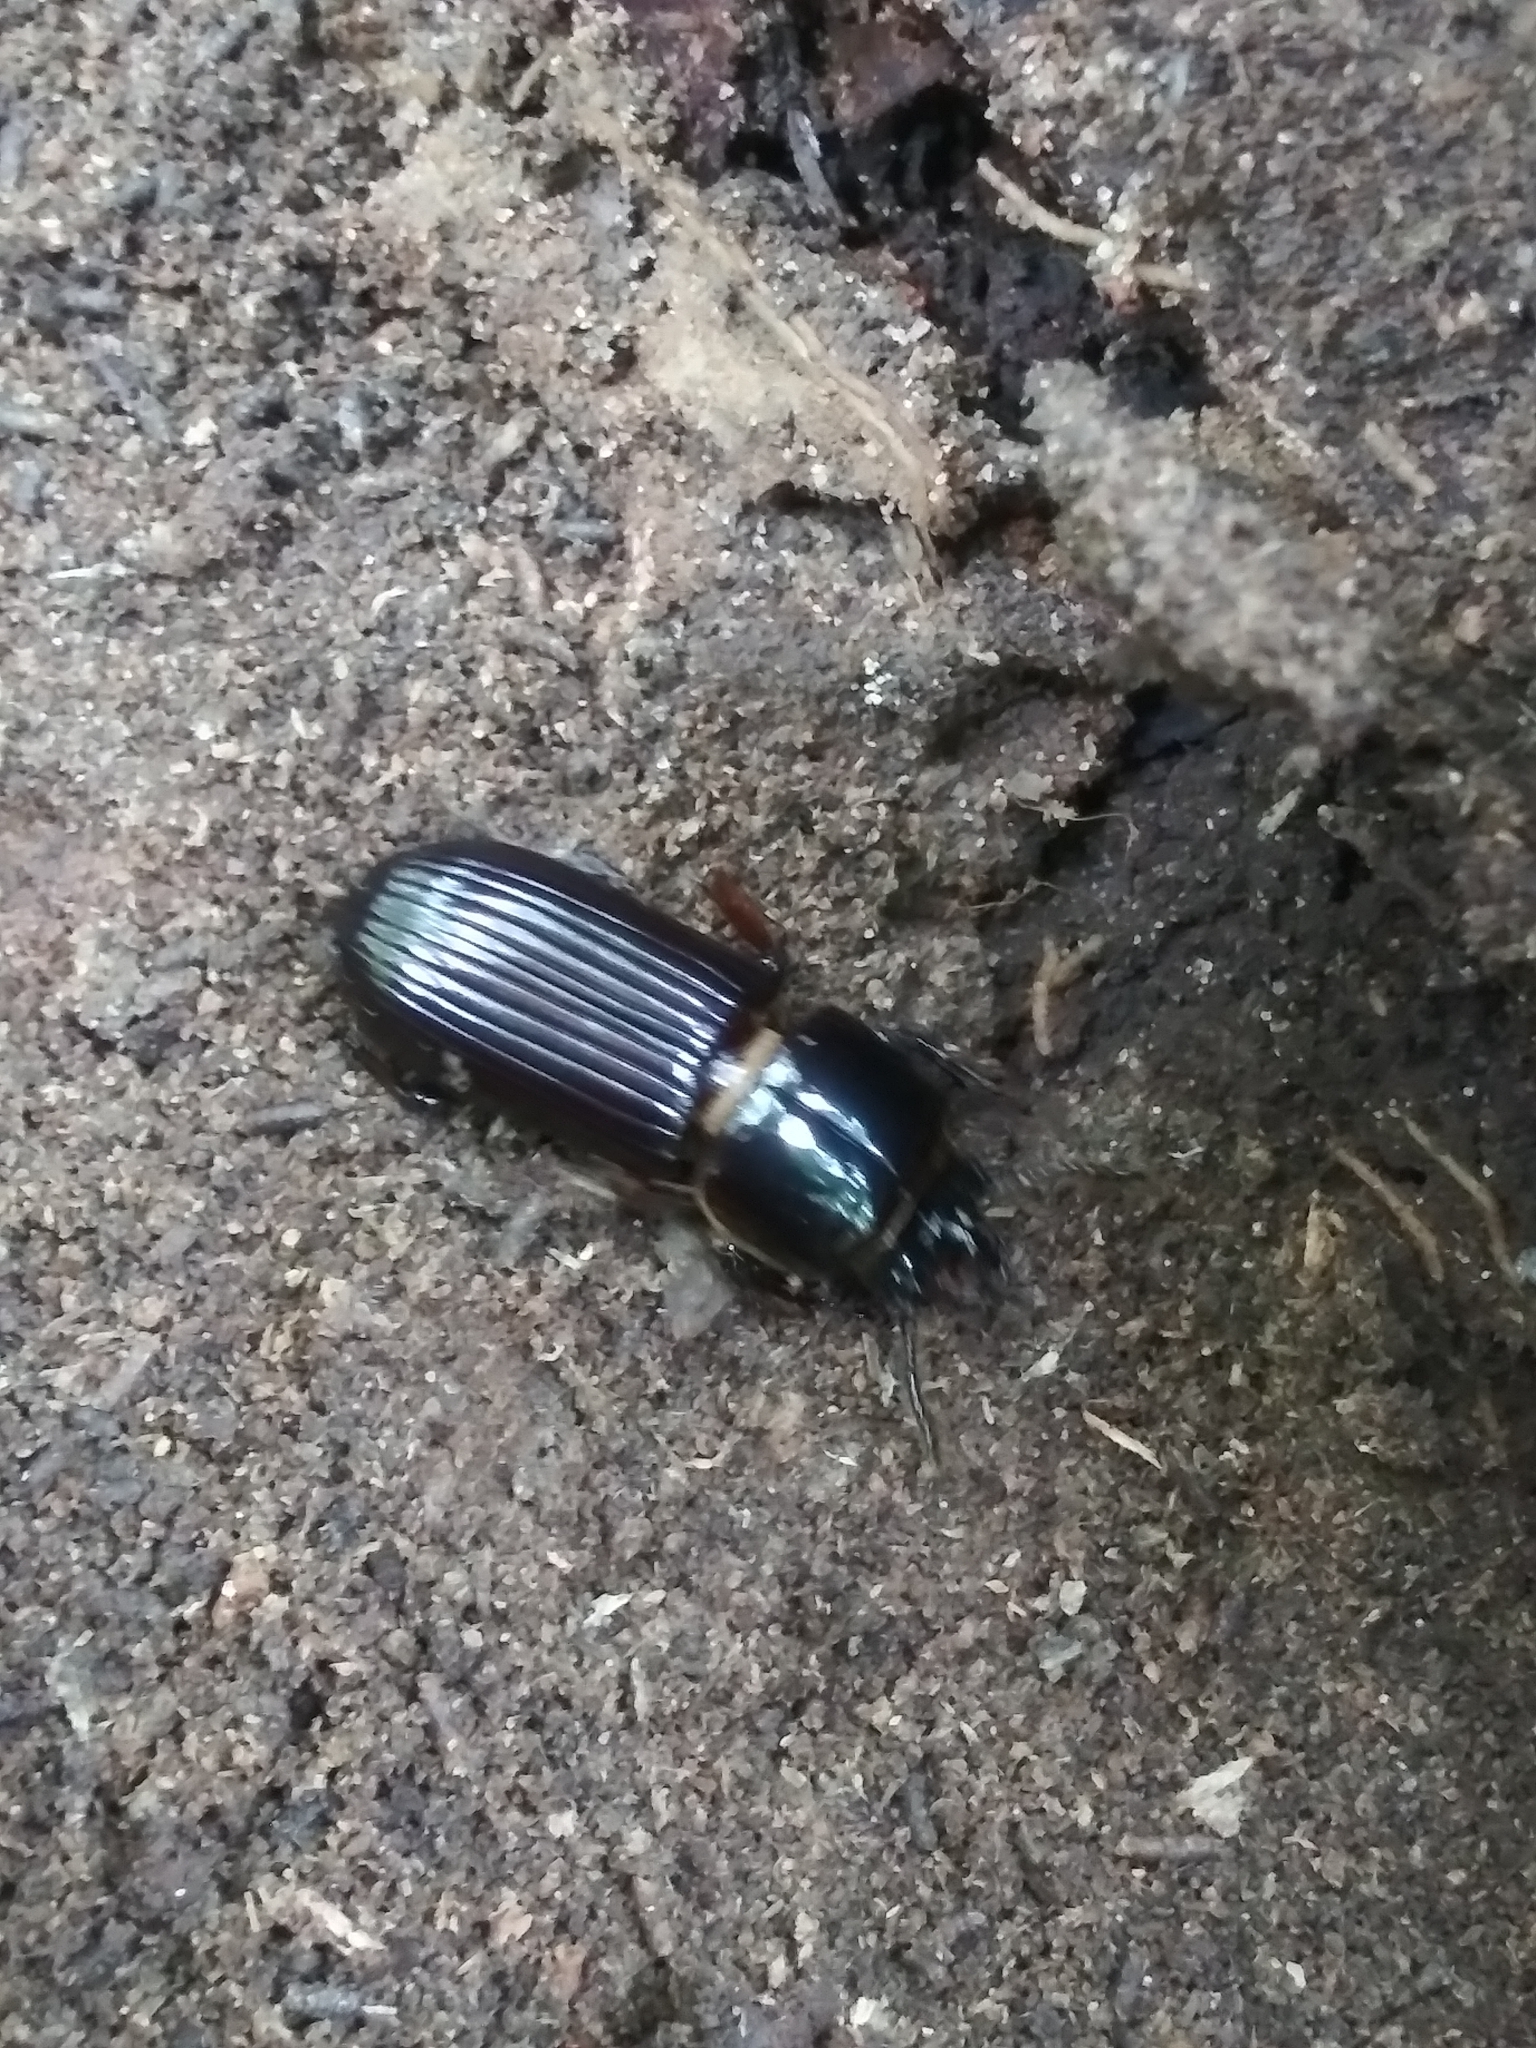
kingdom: Animalia
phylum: Arthropoda
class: Insecta
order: Coleoptera
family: Passalidae
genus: Odontotaenius
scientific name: Odontotaenius disjunctus
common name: Patent leather beetle
